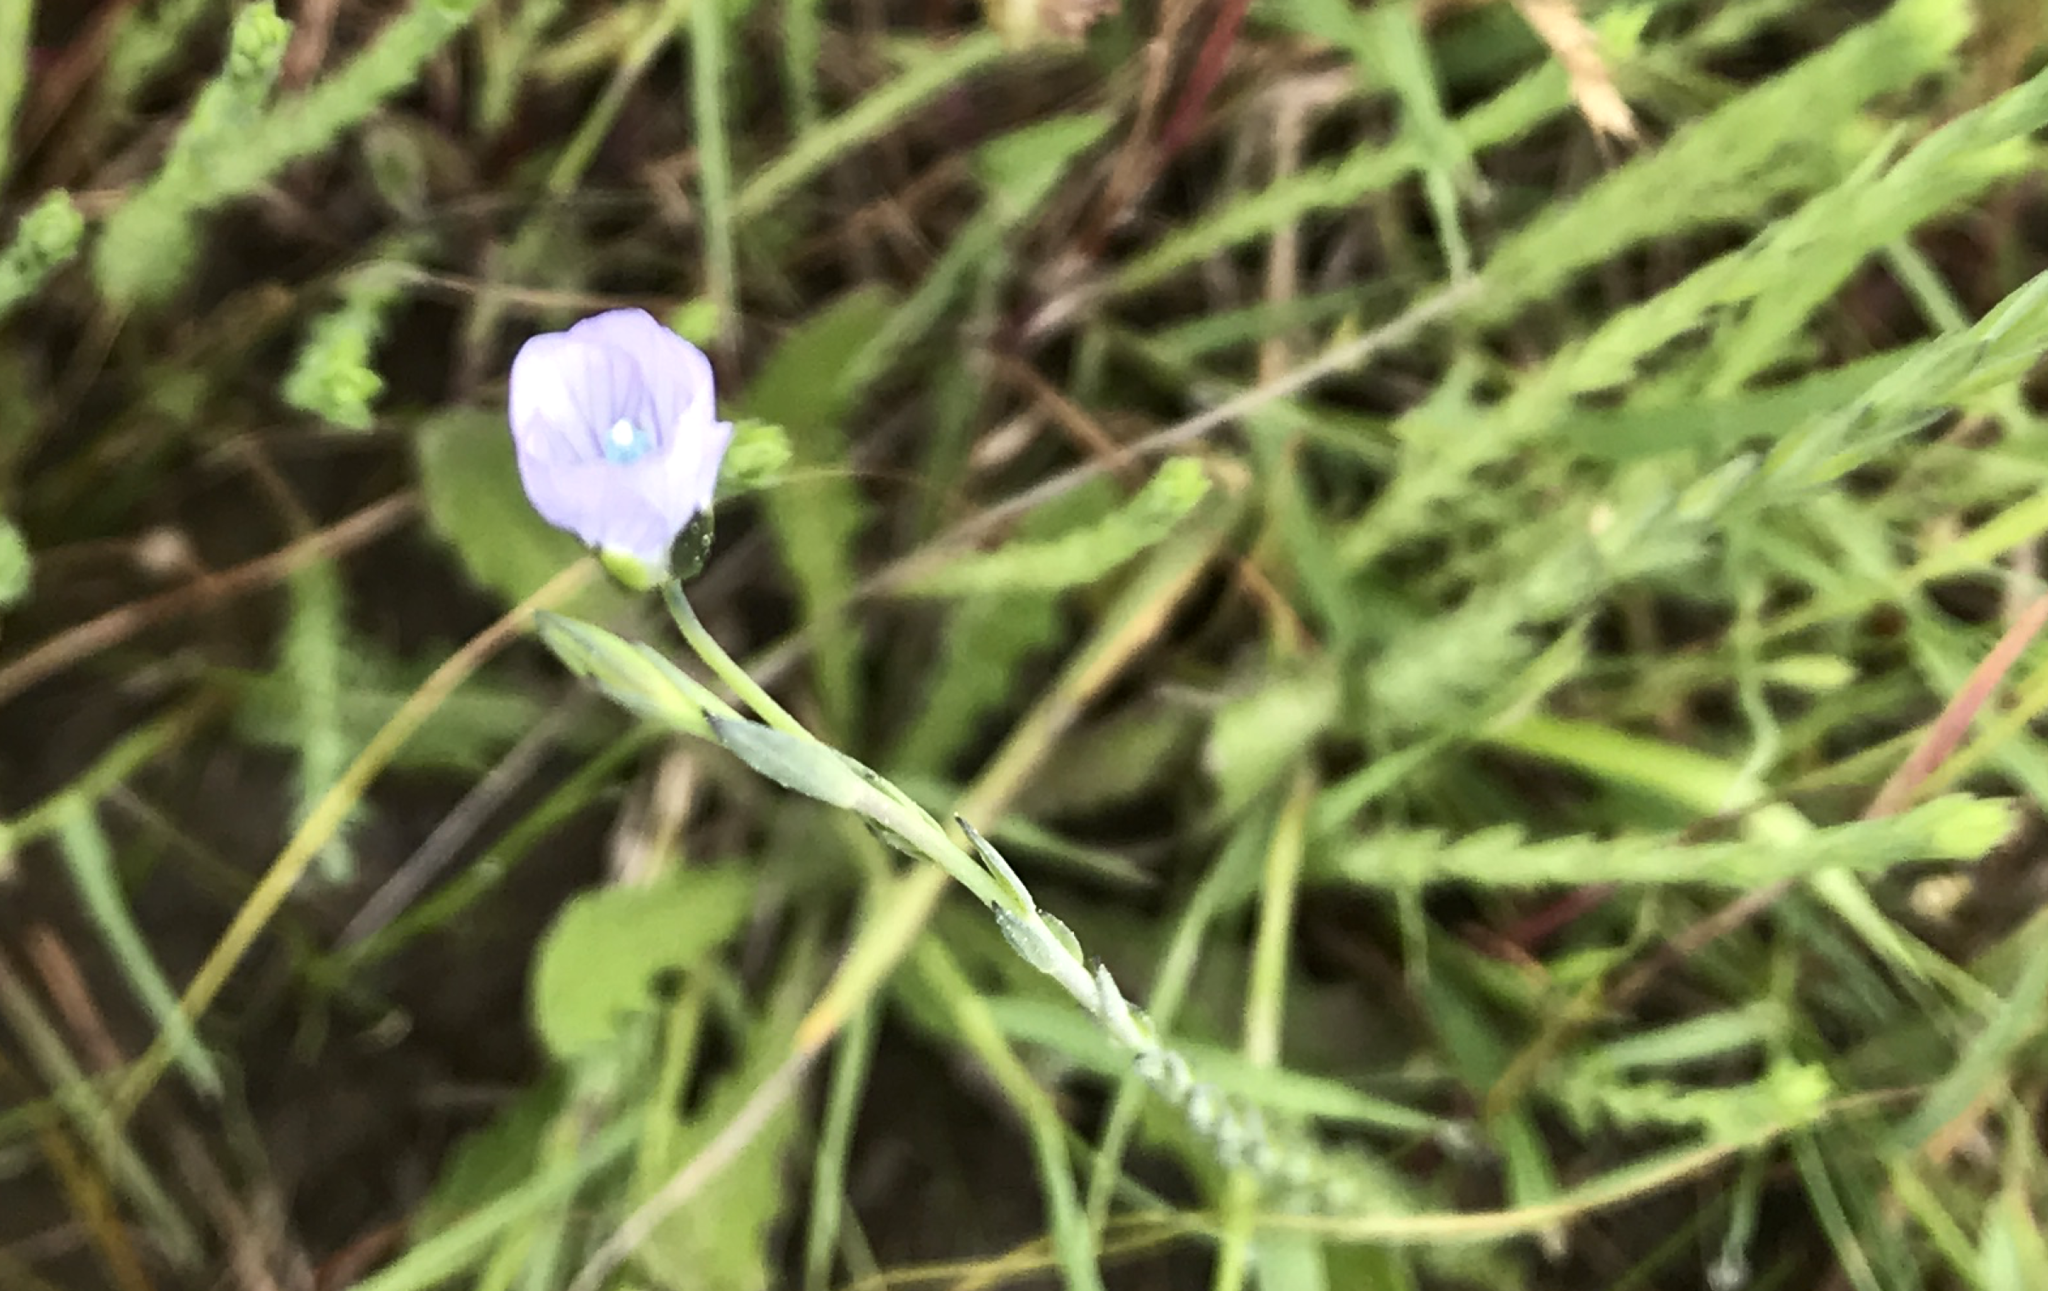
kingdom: Plantae
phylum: Tracheophyta
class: Magnoliopsida
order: Malpighiales
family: Linaceae
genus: Linum
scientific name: Linum bienne
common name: Pale flax
